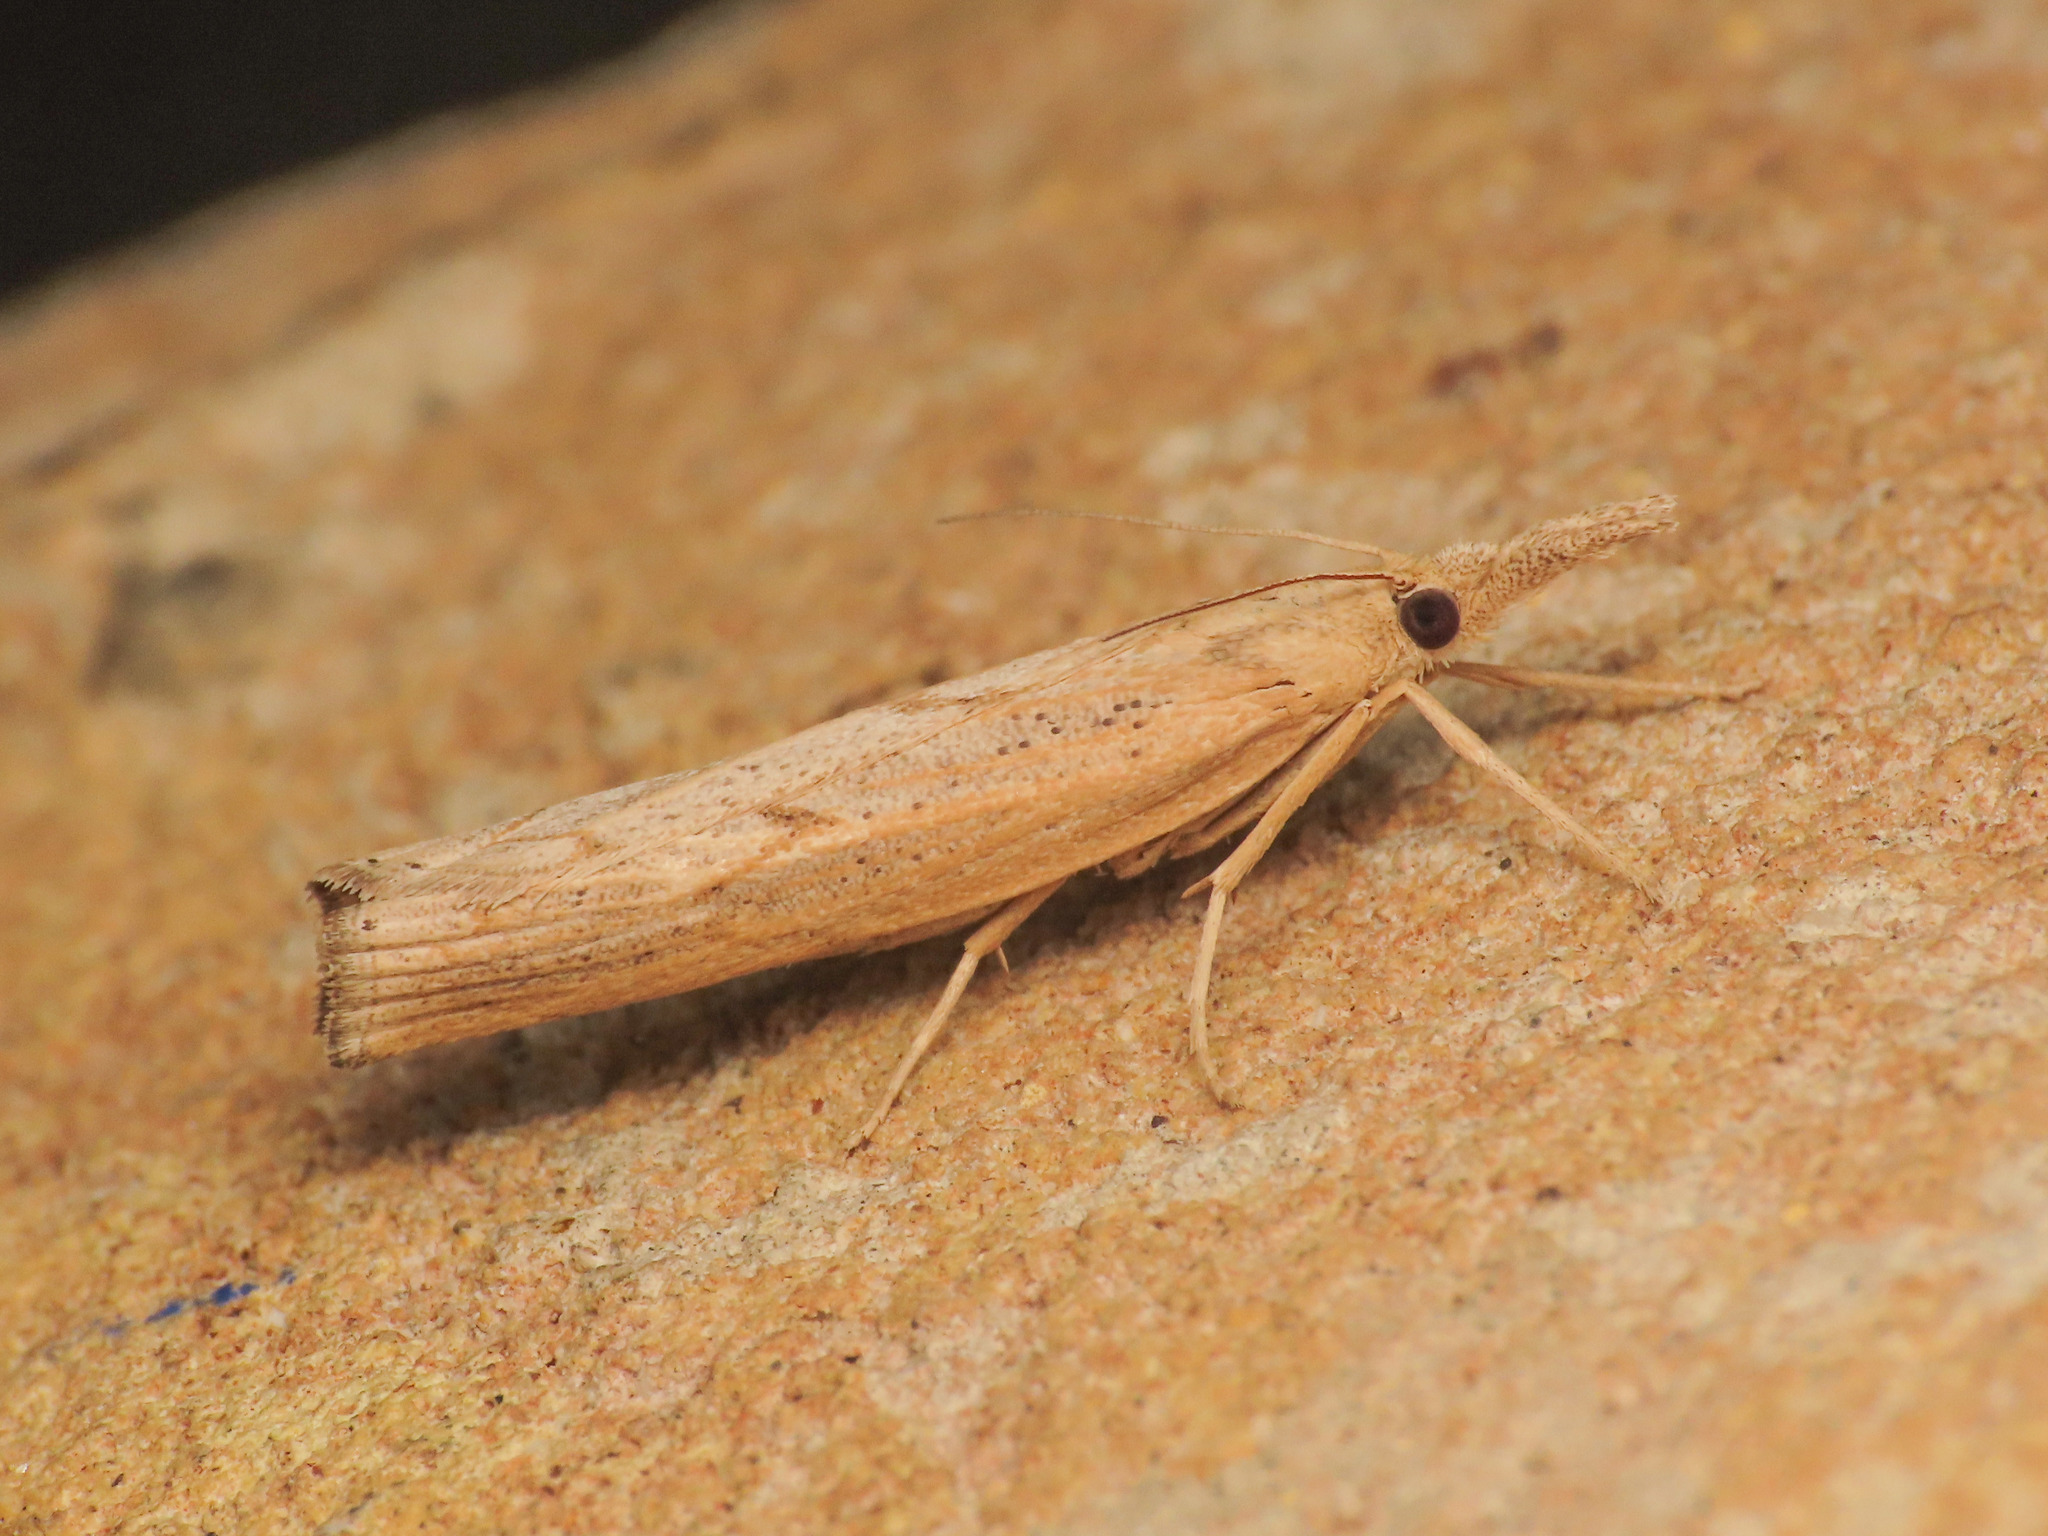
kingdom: Animalia
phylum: Arthropoda
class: Insecta
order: Lepidoptera
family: Crambidae
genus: Pediasia
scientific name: Pediasia contaminella
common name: Waste grass-veneer
